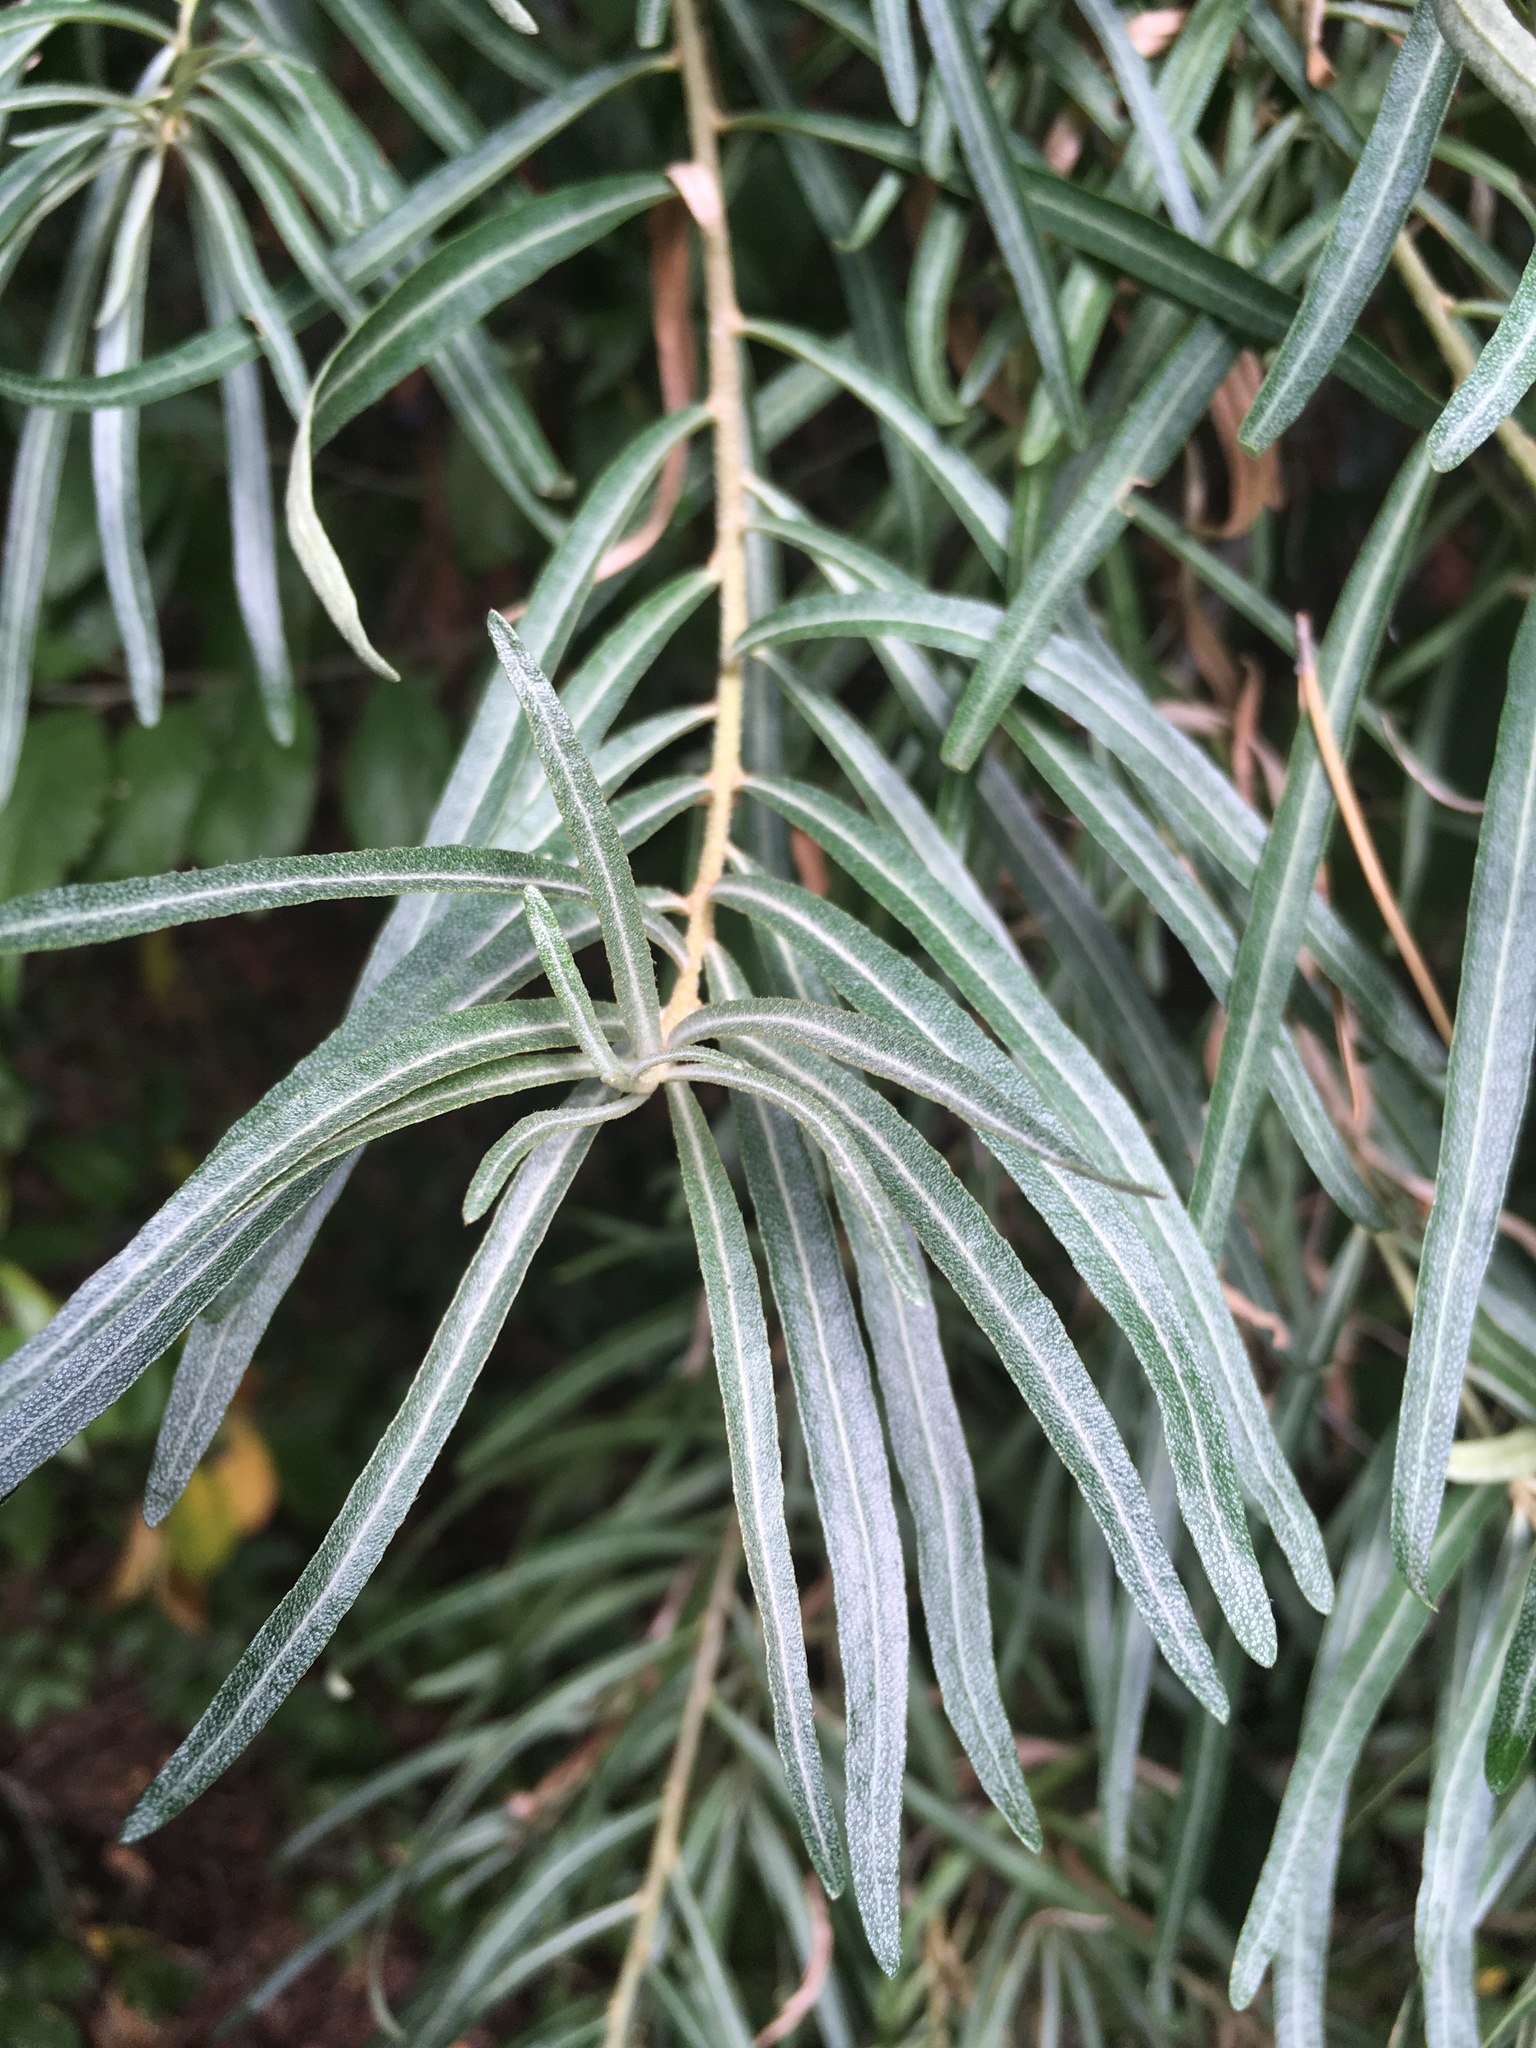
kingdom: Plantae
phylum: Tracheophyta
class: Magnoliopsida
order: Rosales
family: Elaeagnaceae
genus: Hippophae
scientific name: Hippophae rhamnoides
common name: Sea-buckthorn
